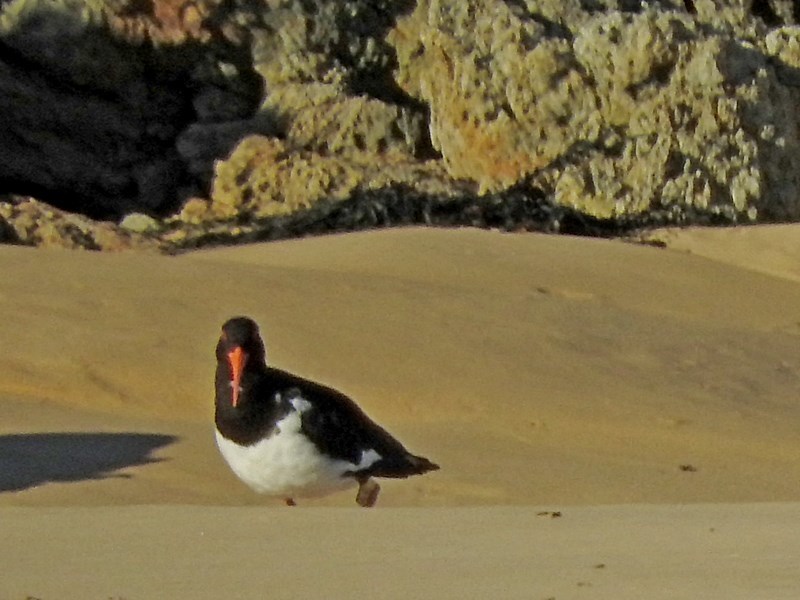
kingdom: Animalia
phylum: Chordata
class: Aves
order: Charadriiformes
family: Haematopodidae
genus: Haematopus
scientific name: Haematopus longirostris
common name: Pied oystercatcher
